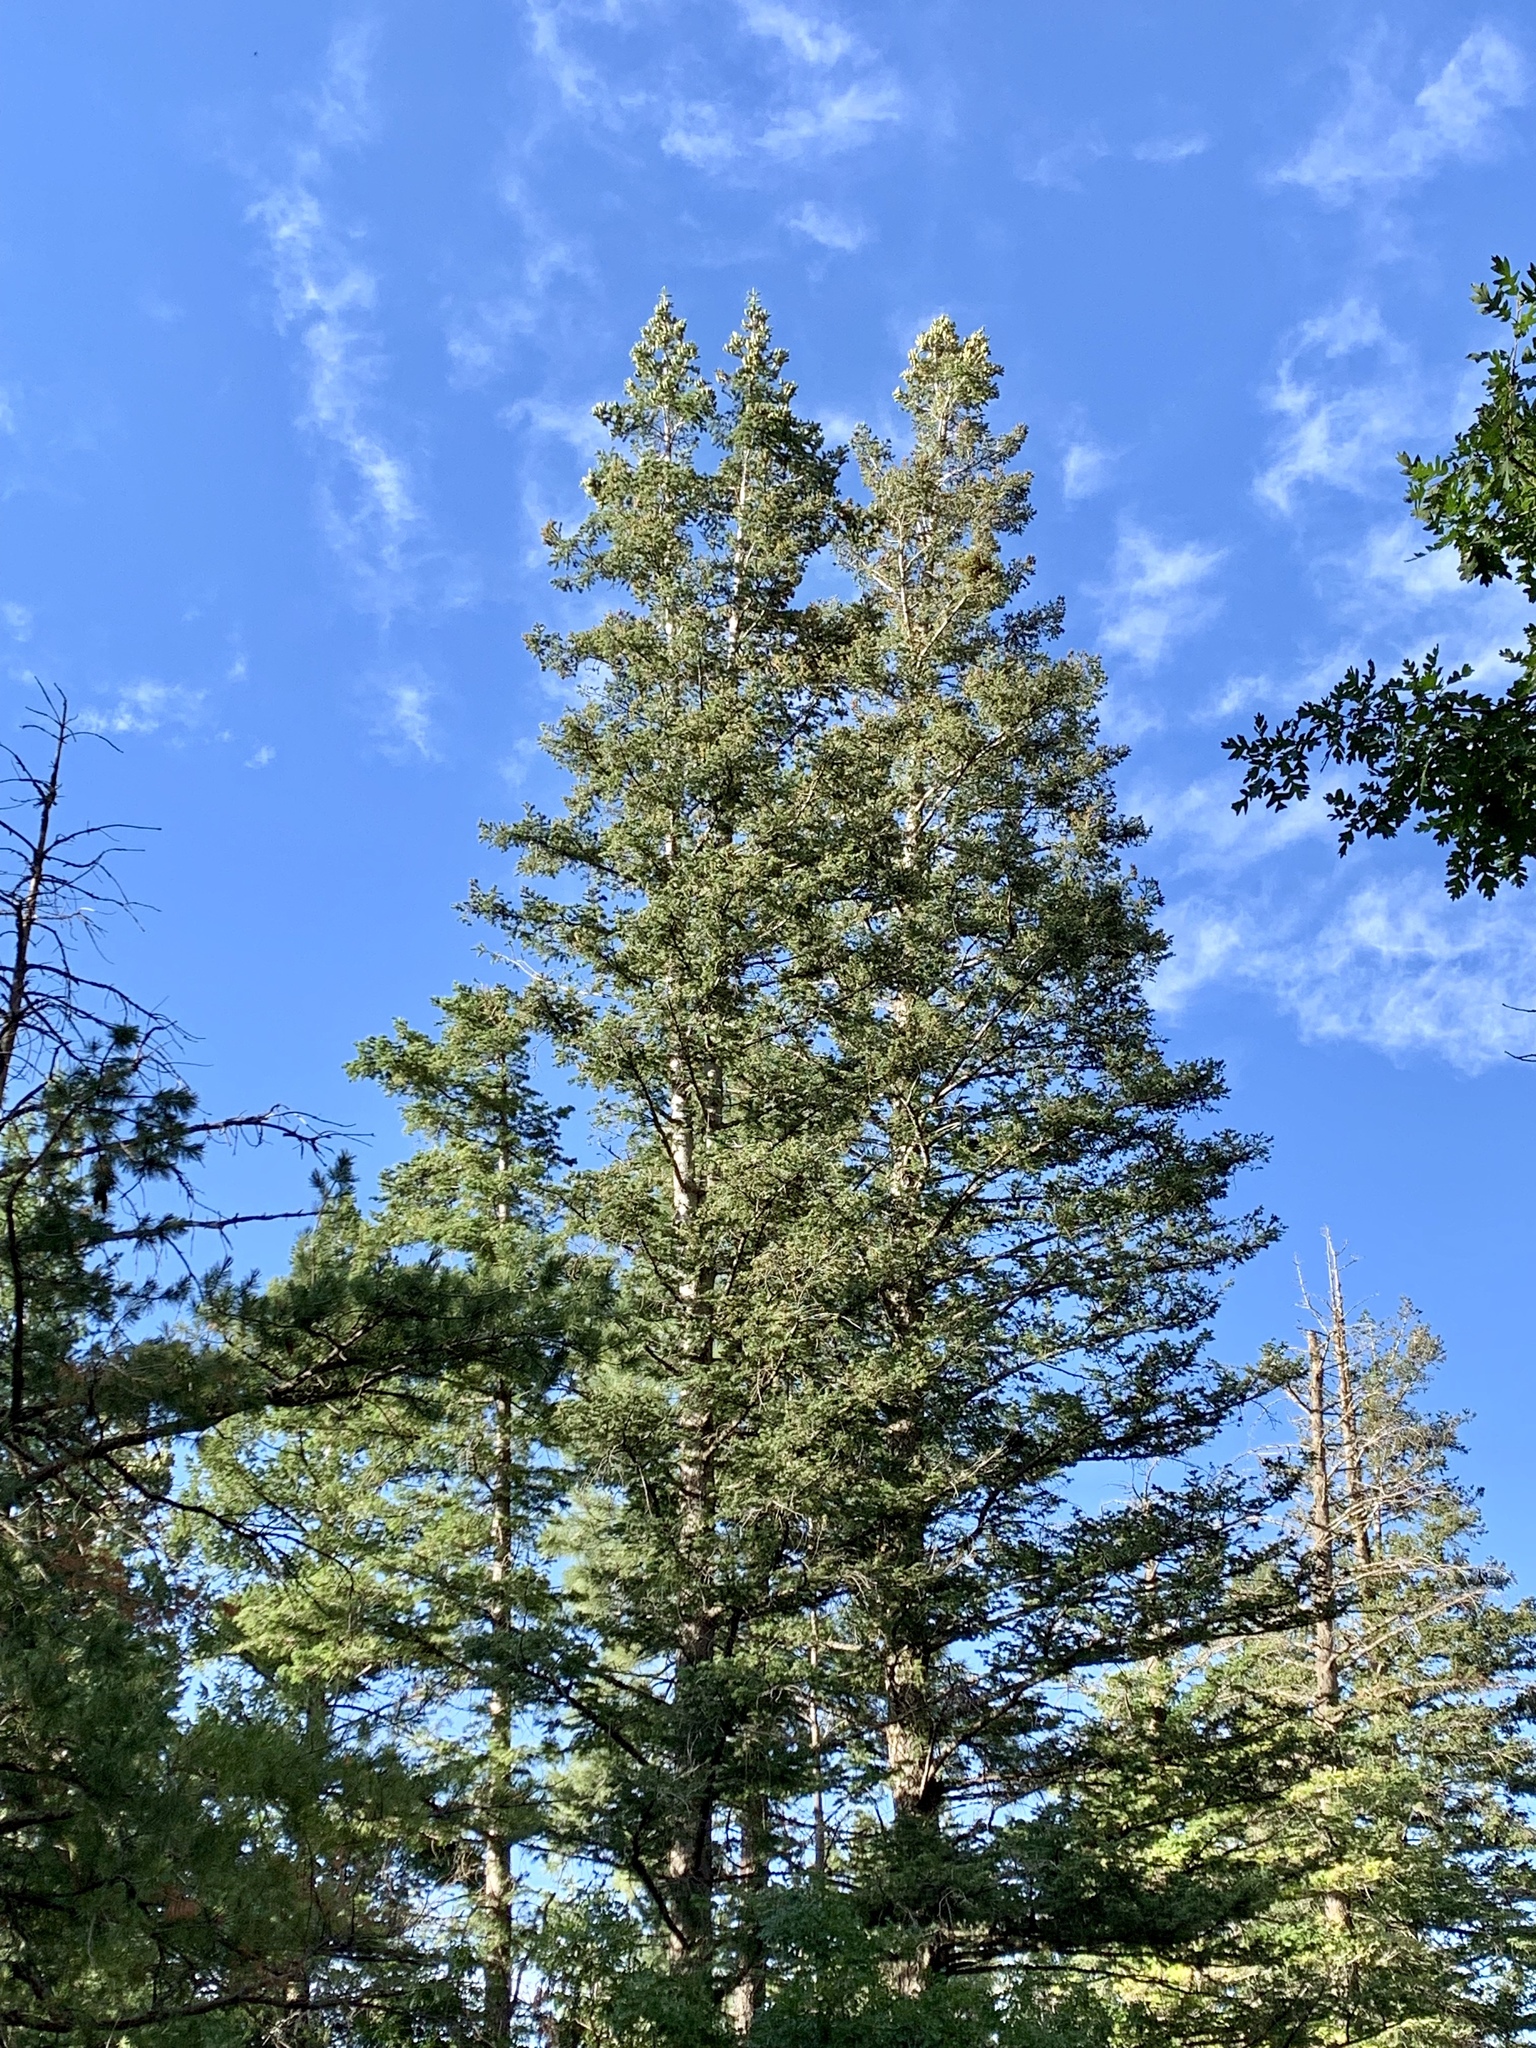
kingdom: Plantae
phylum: Tracheophyta
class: Pinopsida
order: Pinales
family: Pinaceae
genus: Abies
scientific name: Abies concolor
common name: Colorado fir
